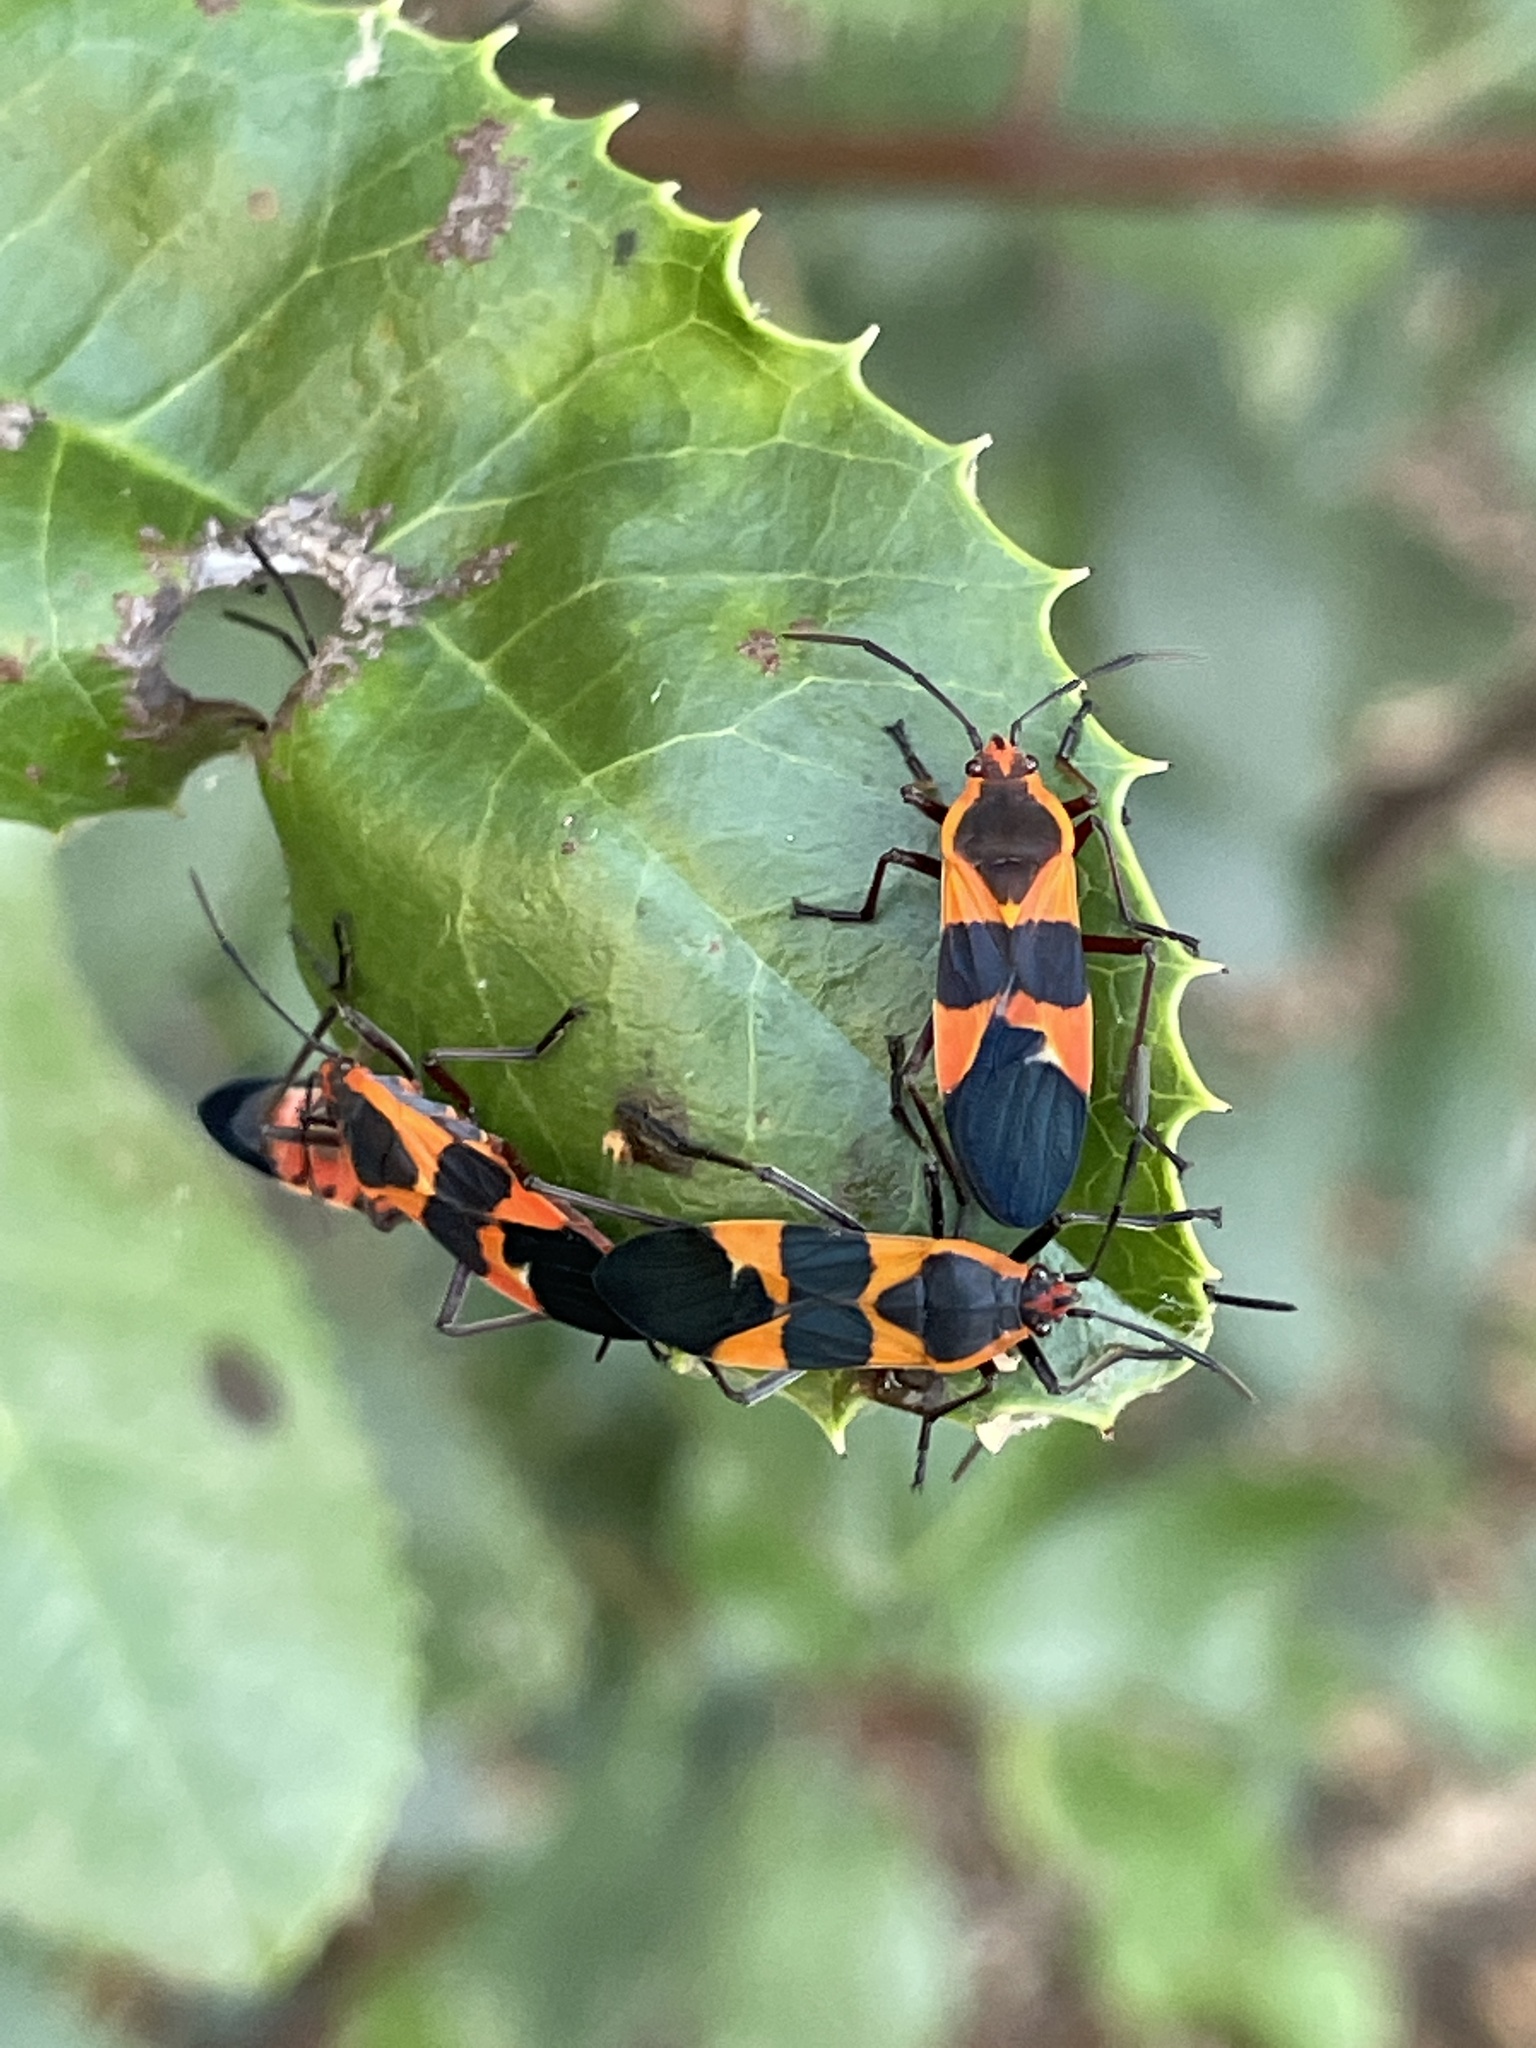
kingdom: Animalia
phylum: Arthropoda
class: Insecta
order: Hemiptera
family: Lygaeidae
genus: Oncopeltus
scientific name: Oncopeltus fasciatus
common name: Large milkweed bug
